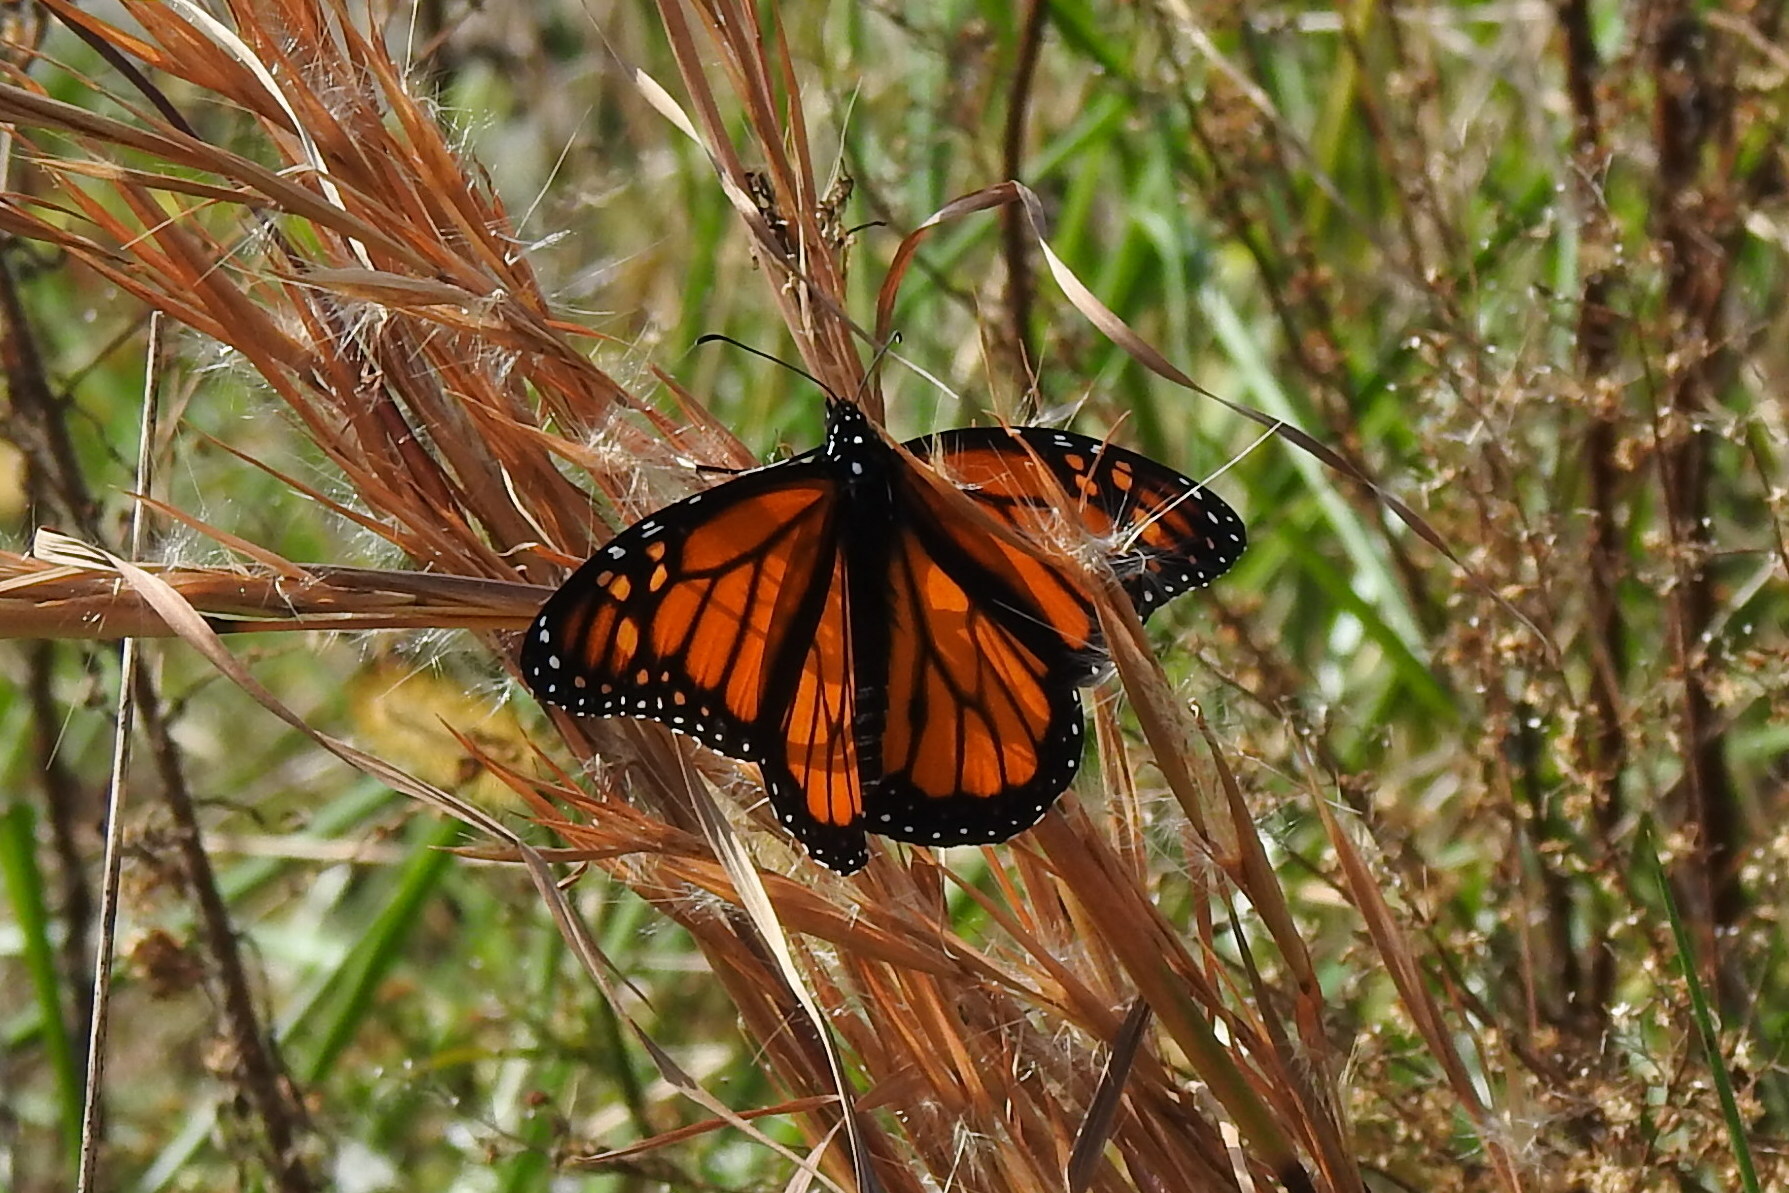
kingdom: Animalia
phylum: Arthropoda
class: Insecta
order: Lepidoptera
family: Nymphalidae
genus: Danaus
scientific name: Danaus plexippus
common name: Monarch
